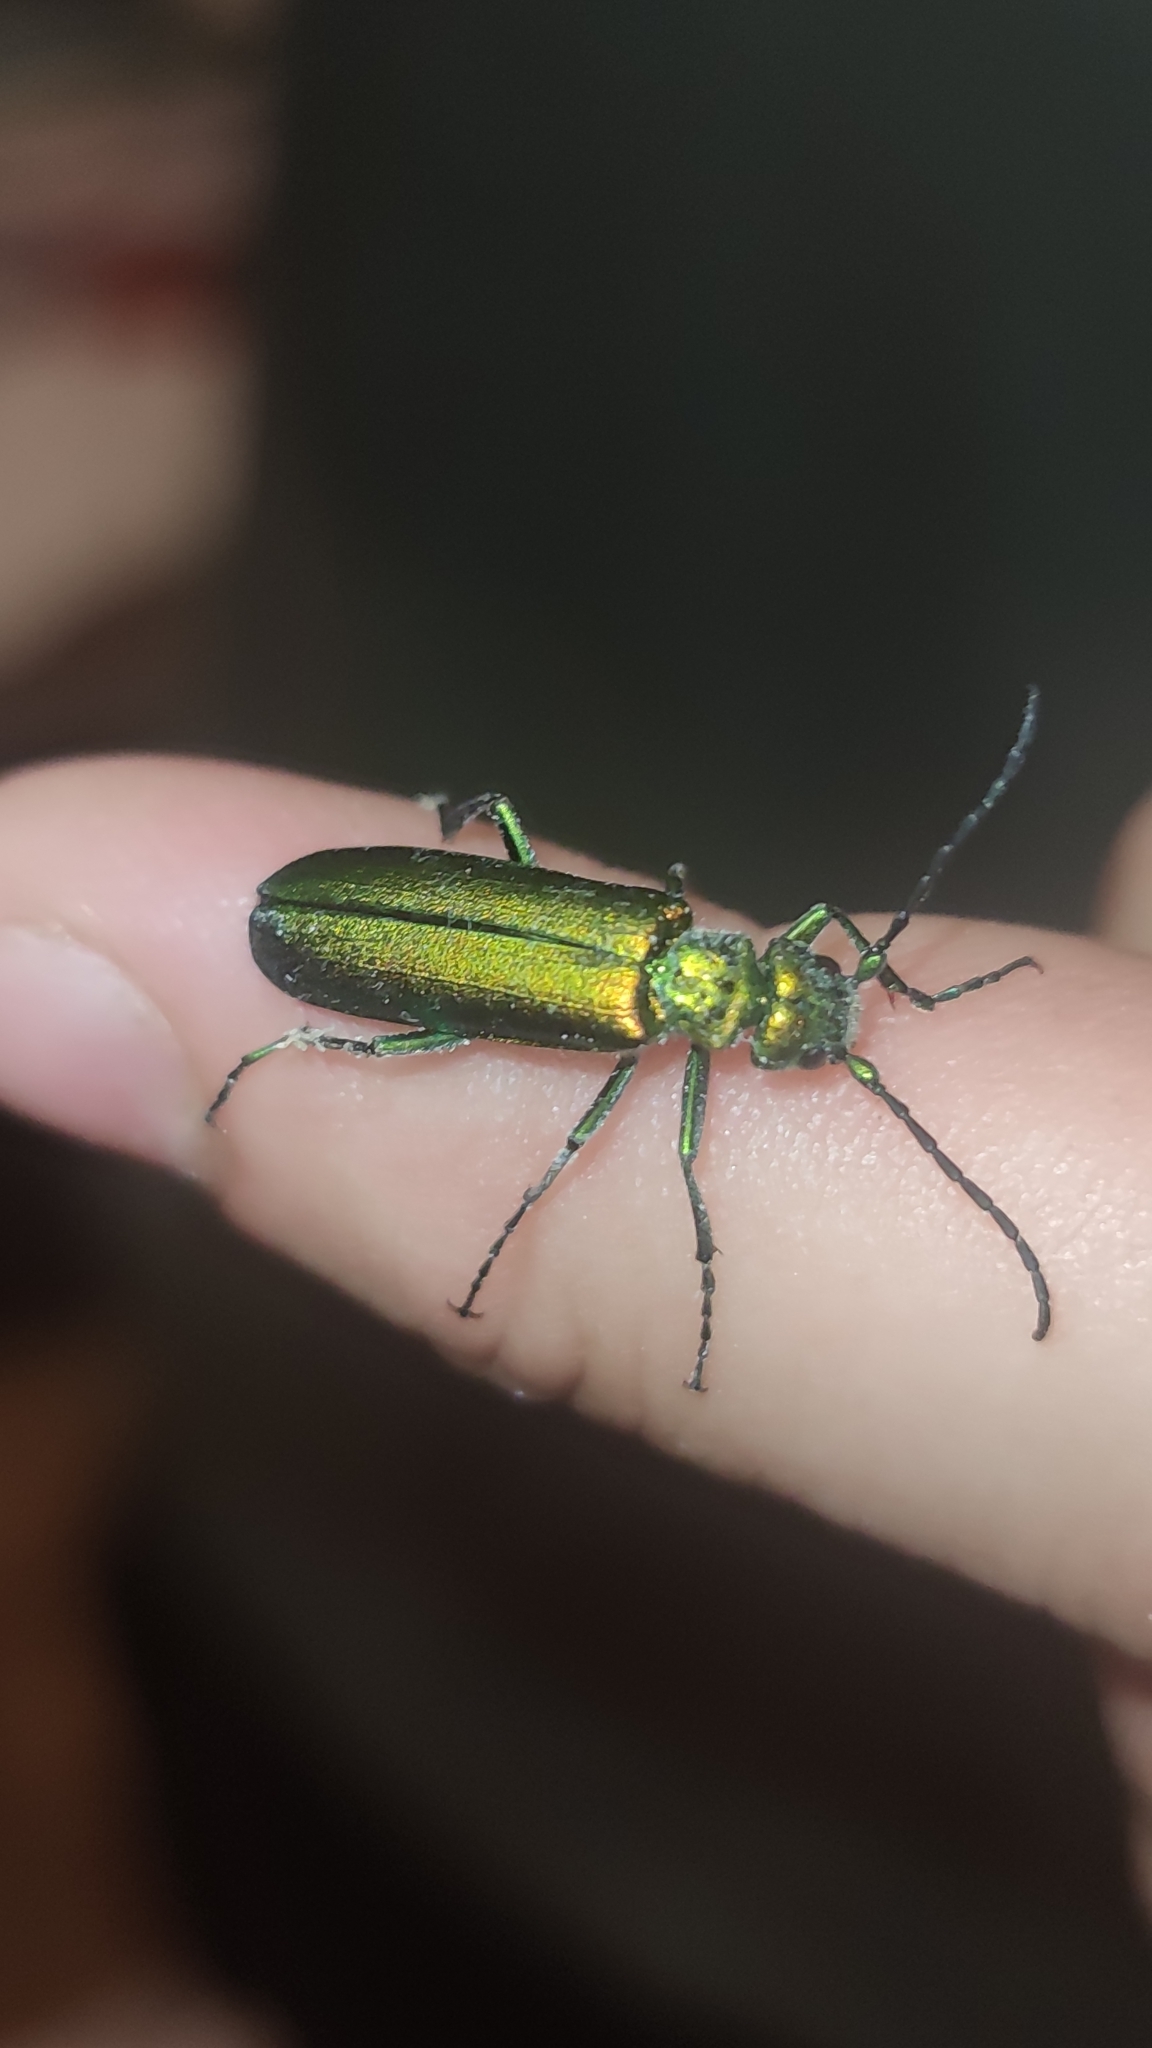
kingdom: Animalia
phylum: Arthropoda
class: Insecta
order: Coleoptera
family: Meloidae
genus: Lytta
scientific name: Lytta vesicatoria
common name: Spanish fly
